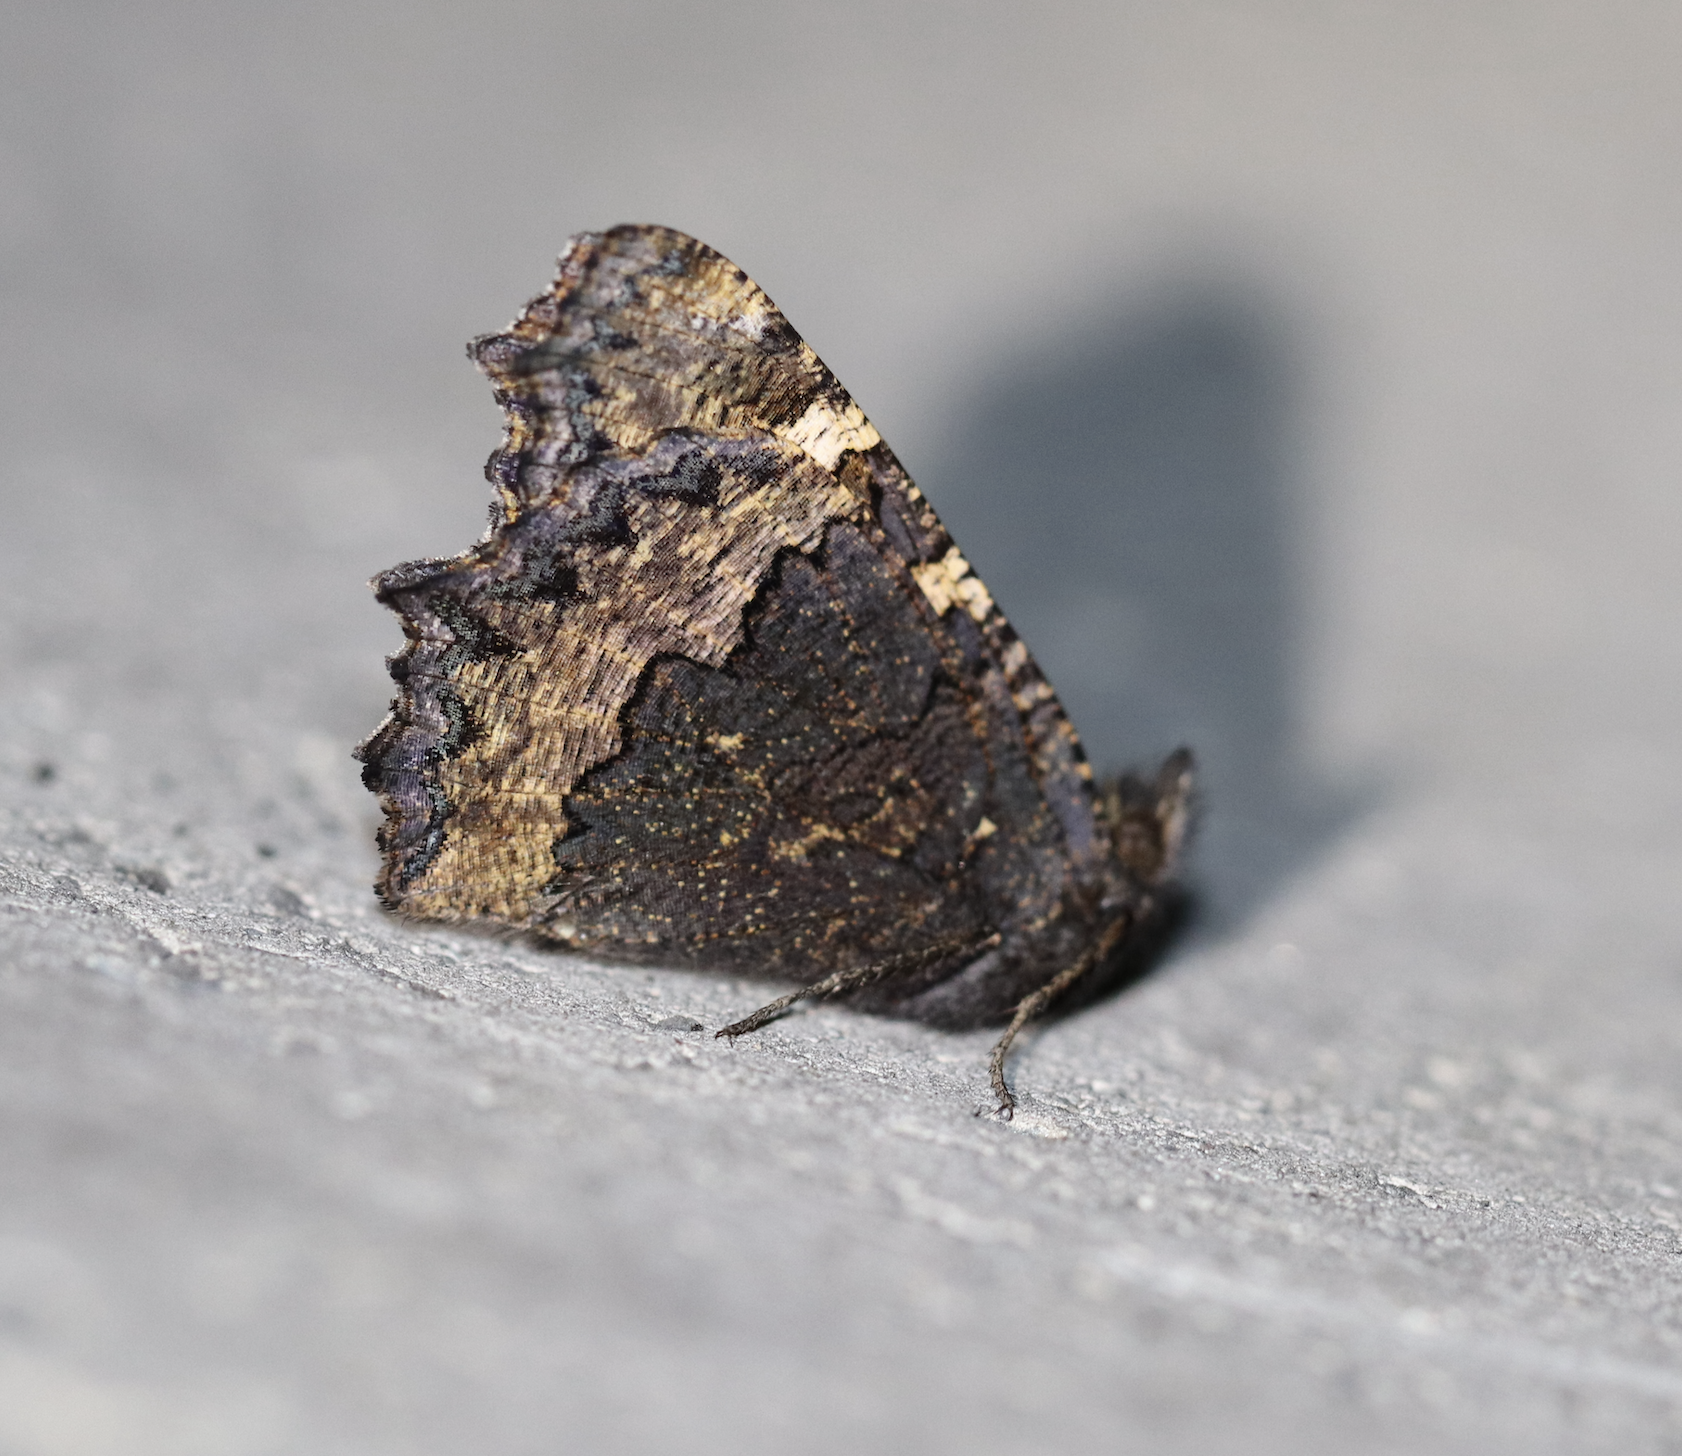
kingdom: Animalia
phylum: Arthropoda
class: Insecta
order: Lepidoptera
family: Nymphalidae
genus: Aglais
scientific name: Aglais urticae
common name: Small tortoiseshell
